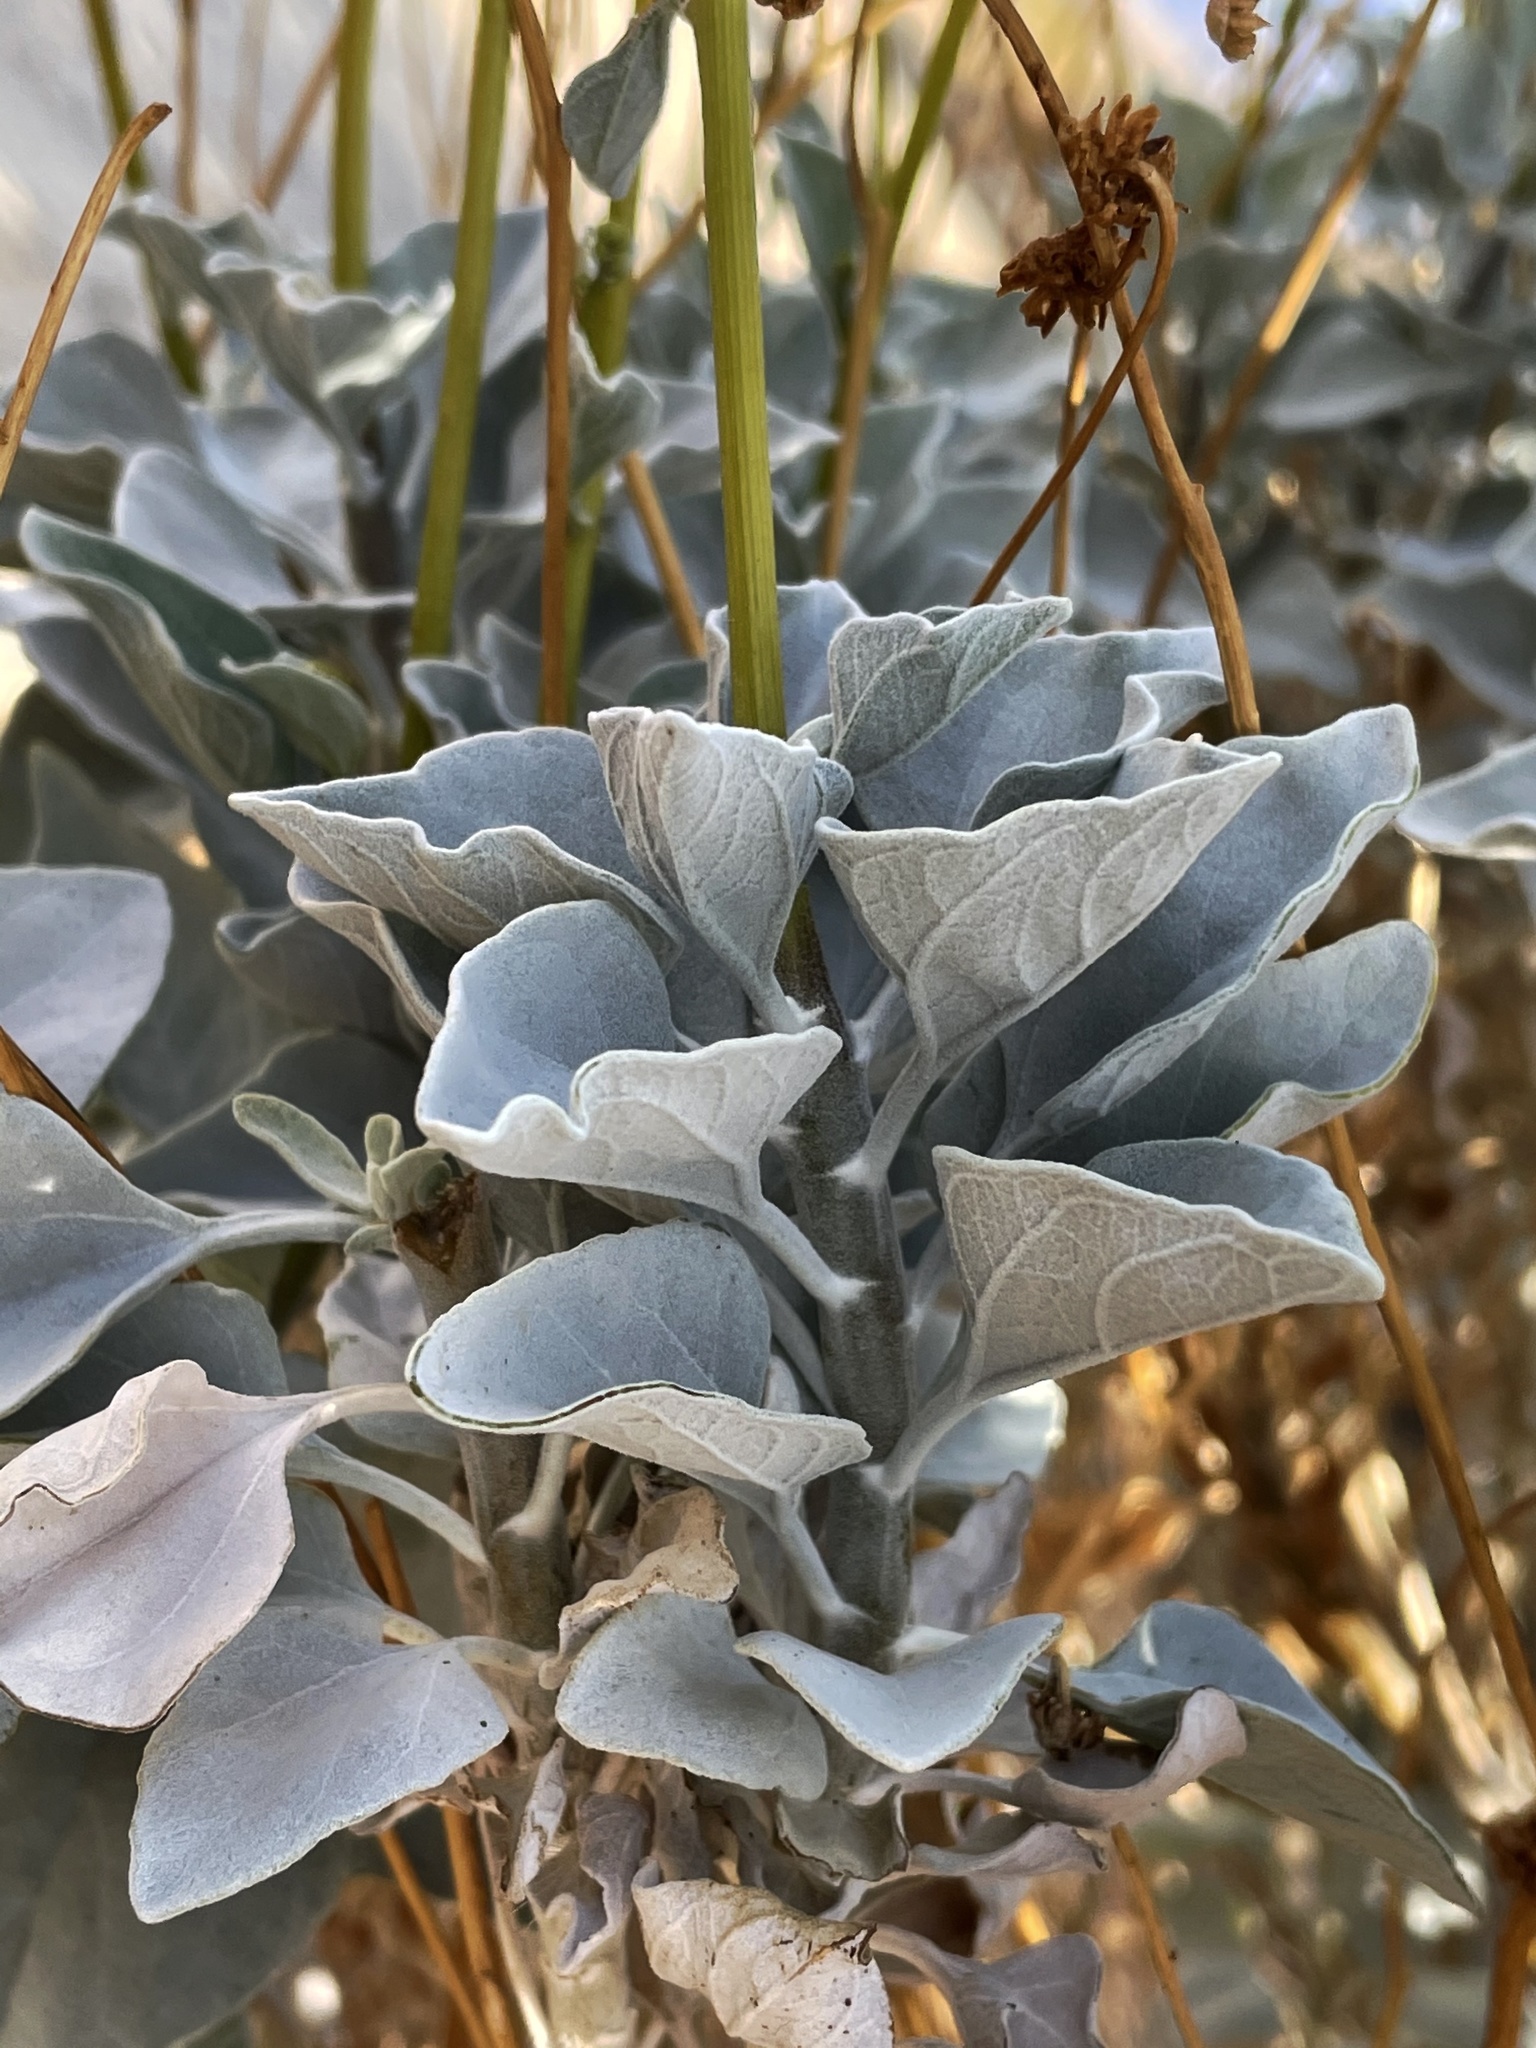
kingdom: Plantae
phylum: Tracheophyta
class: Magnoliopsida
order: Asterales
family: Asteraceae
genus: Encelia
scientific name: Encelia farinosa
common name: Brittlebush
